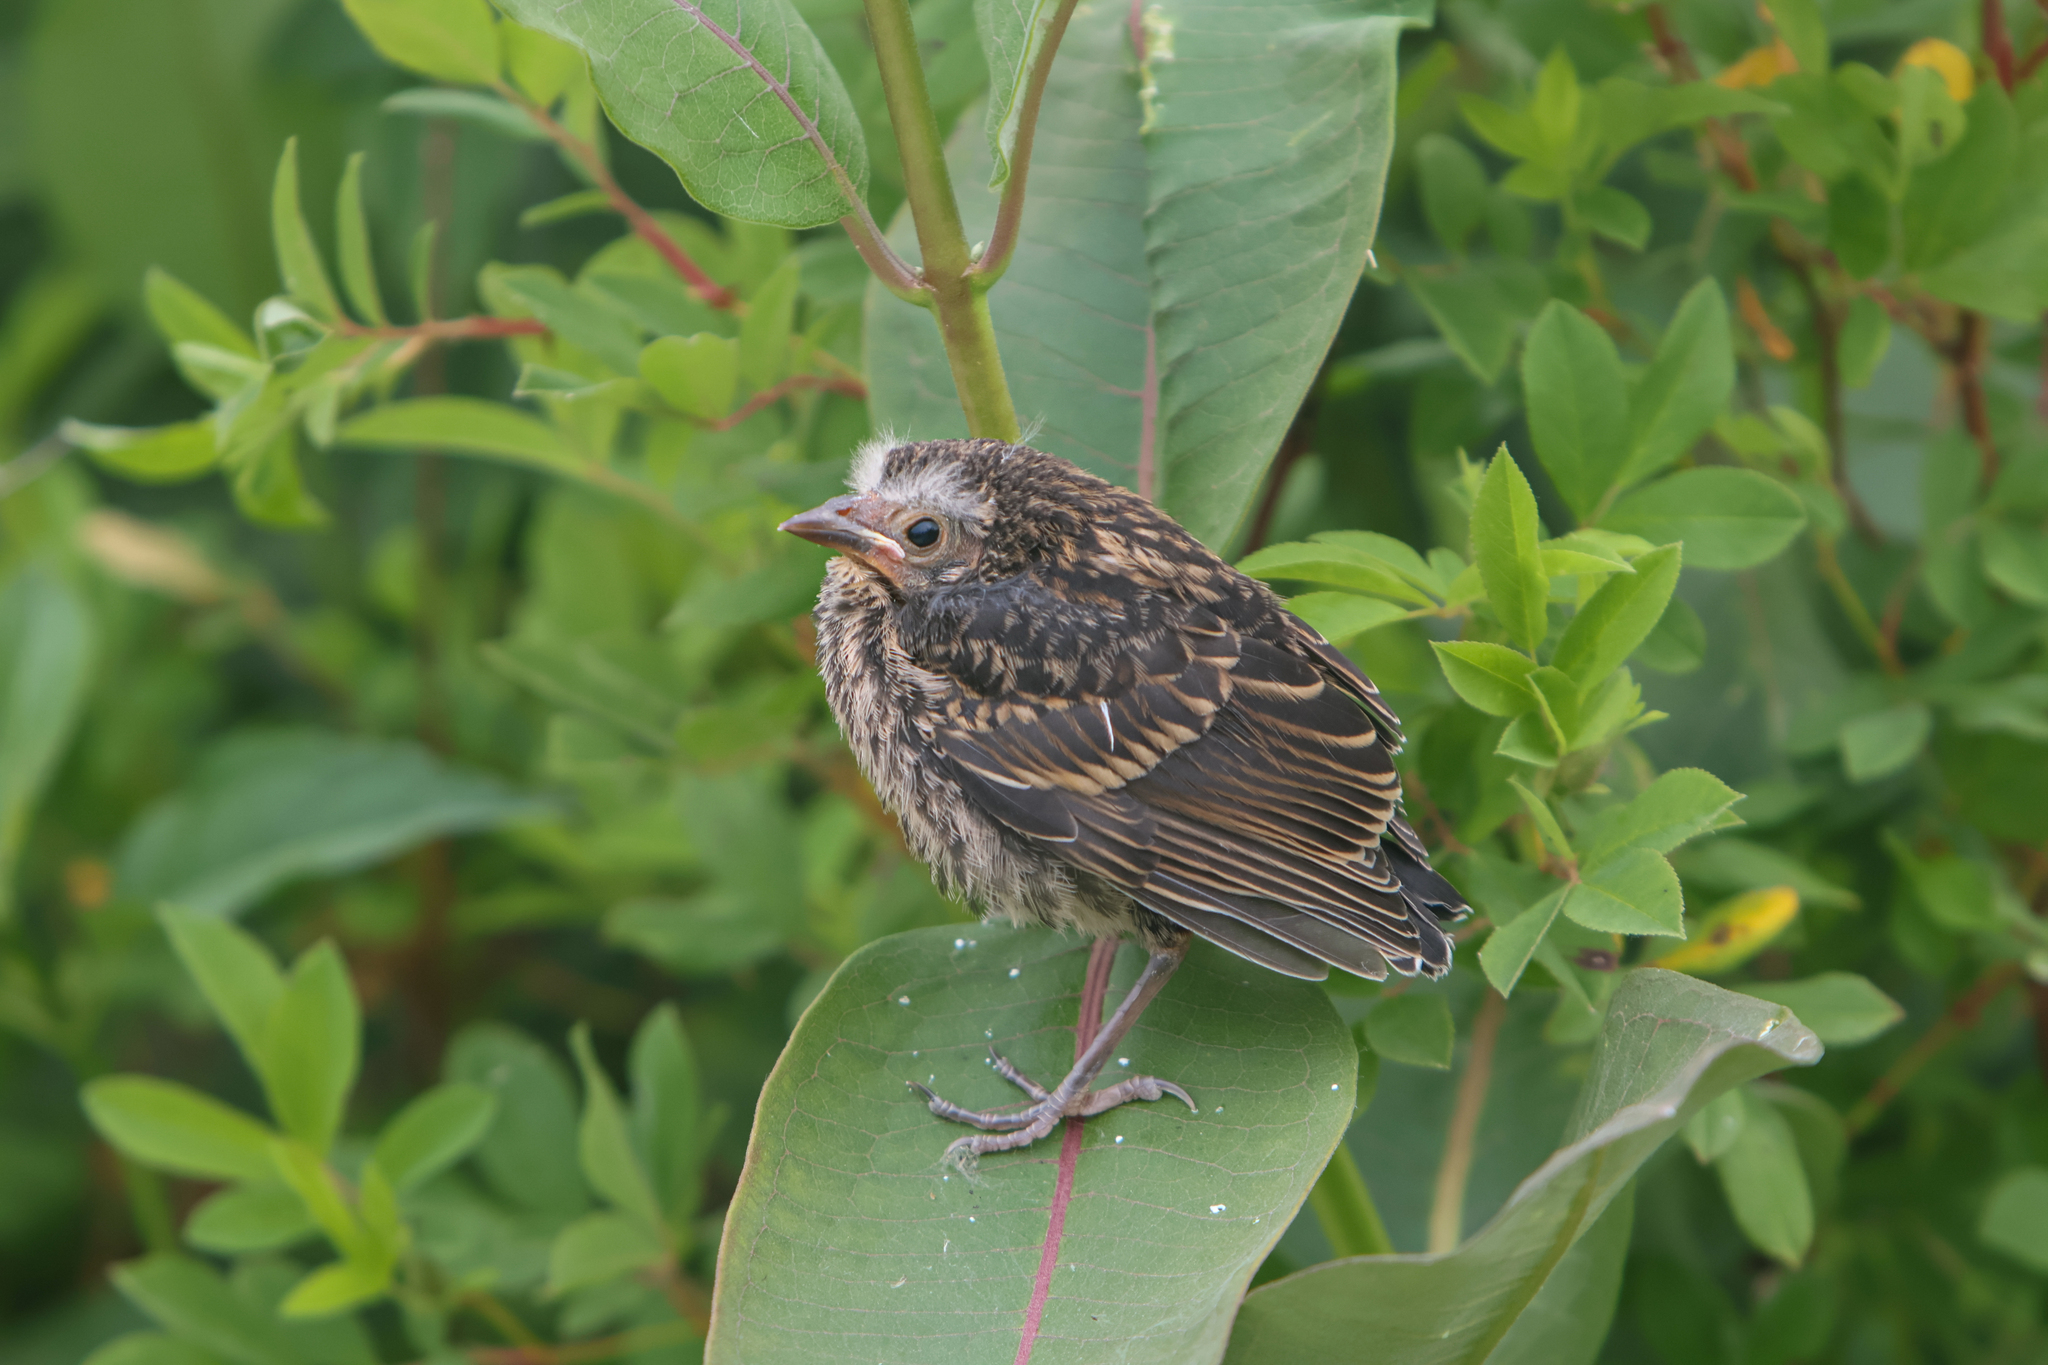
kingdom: Animalia
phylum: Chordata
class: Aves
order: Passeriformes
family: Icteridae
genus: Agelaius
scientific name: Agelaius phoeniceus
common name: Red-winged blackbird
